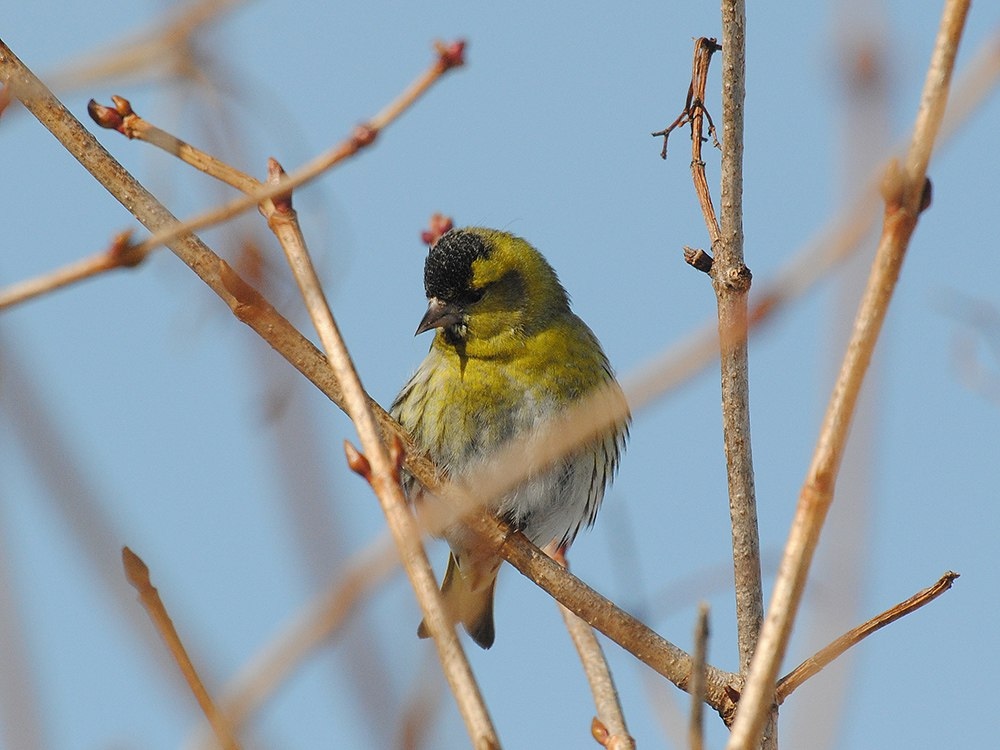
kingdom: Animalia
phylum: Chordata
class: Aves
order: Passeriformes
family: Fringillidae
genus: Spinus
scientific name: Spinus spinus
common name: Eurasian siskin
